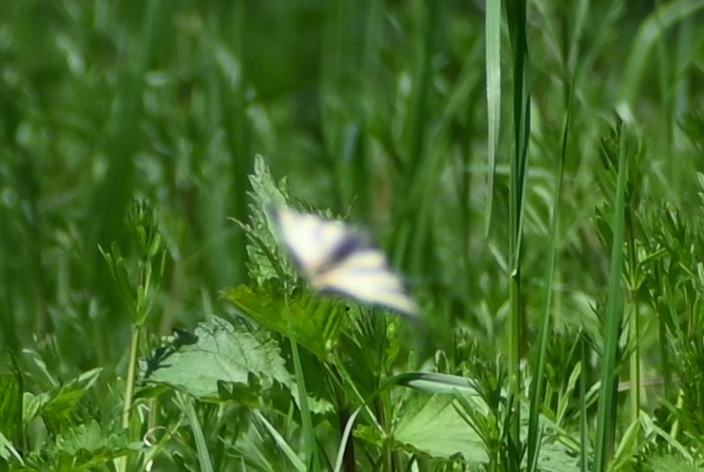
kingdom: Animalia
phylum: Arthropoda
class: Insecta
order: Lepidoptera
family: Papilionidae
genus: Iphiclides
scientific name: Iphiclides podalirius
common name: Scarce swallowtail
